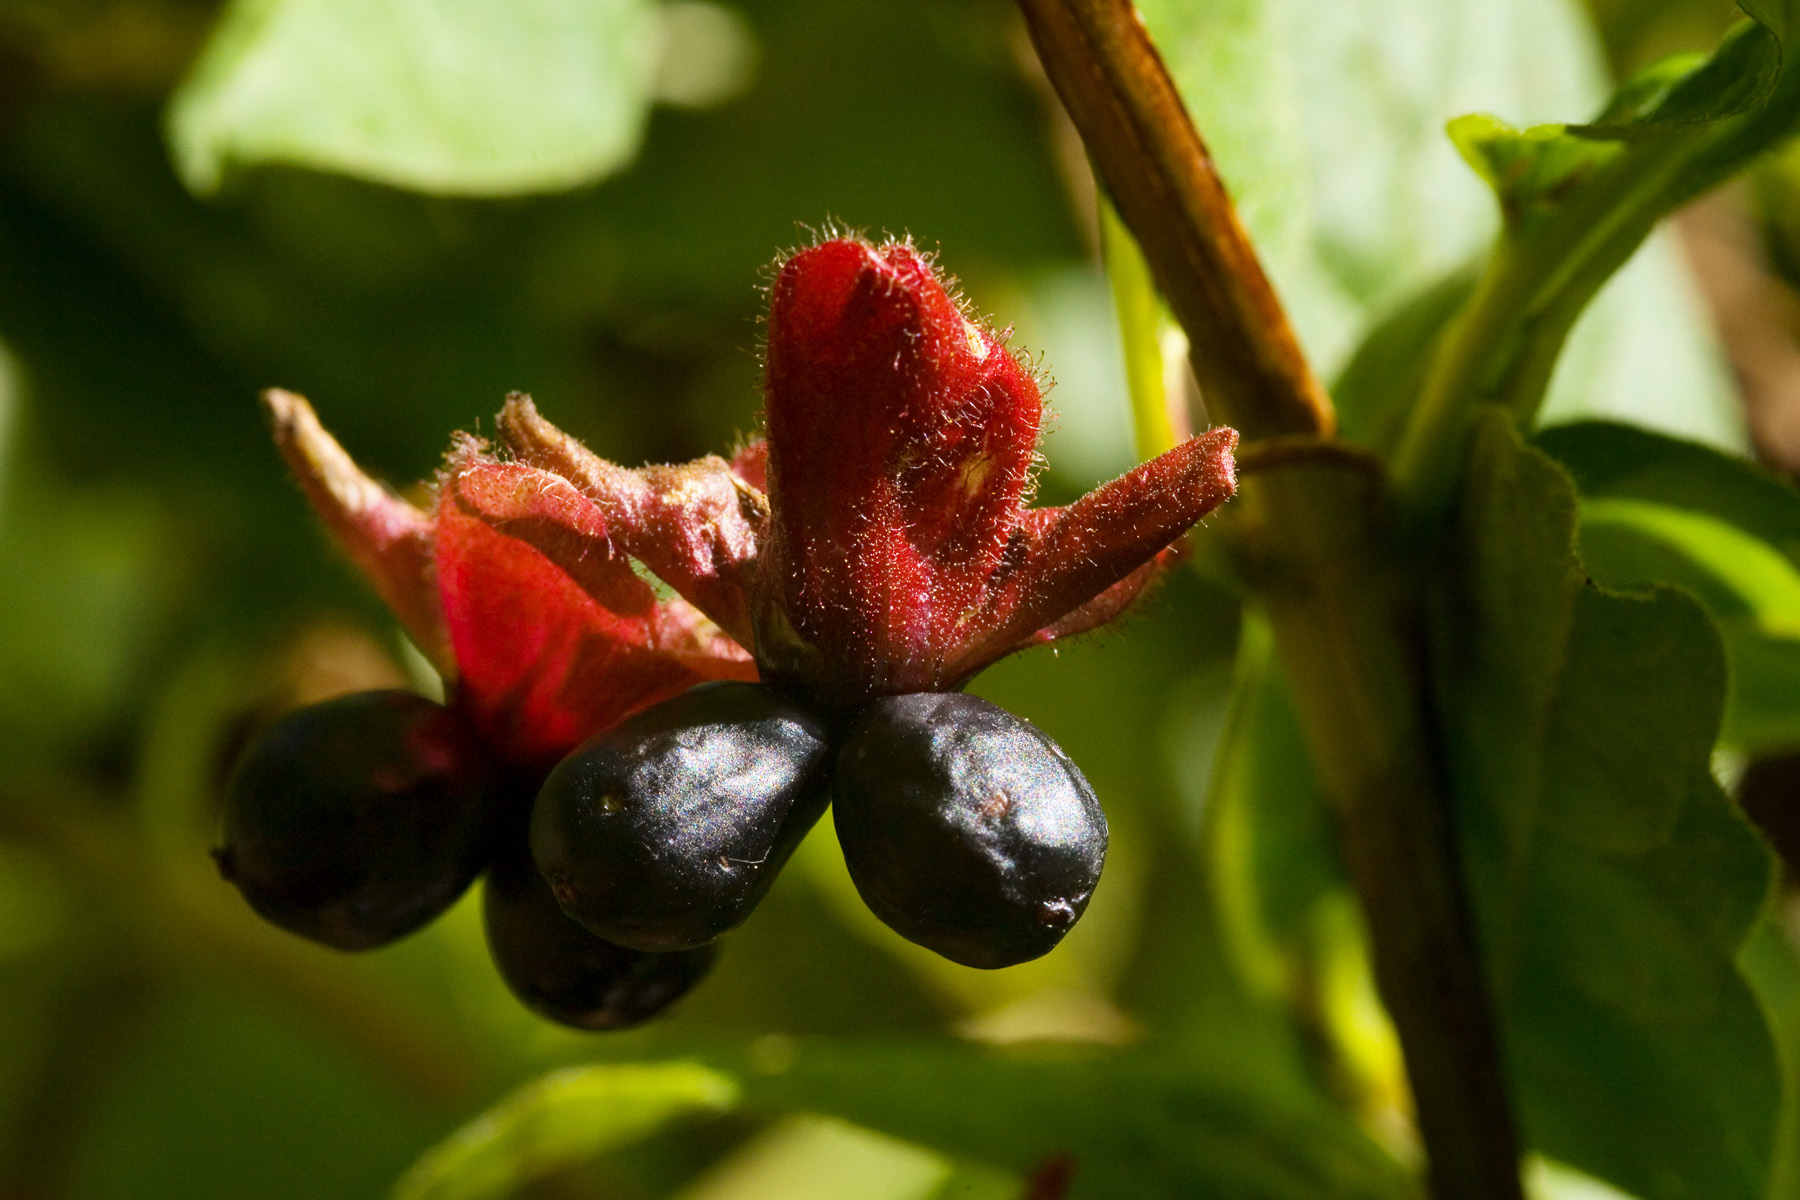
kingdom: Plantae
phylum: Tracheophyta
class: Magnoliopsida
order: Dipsacales
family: Caprifoliaceae
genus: Lonicera
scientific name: Lonicera involucrata
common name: Californian honeysuckle
